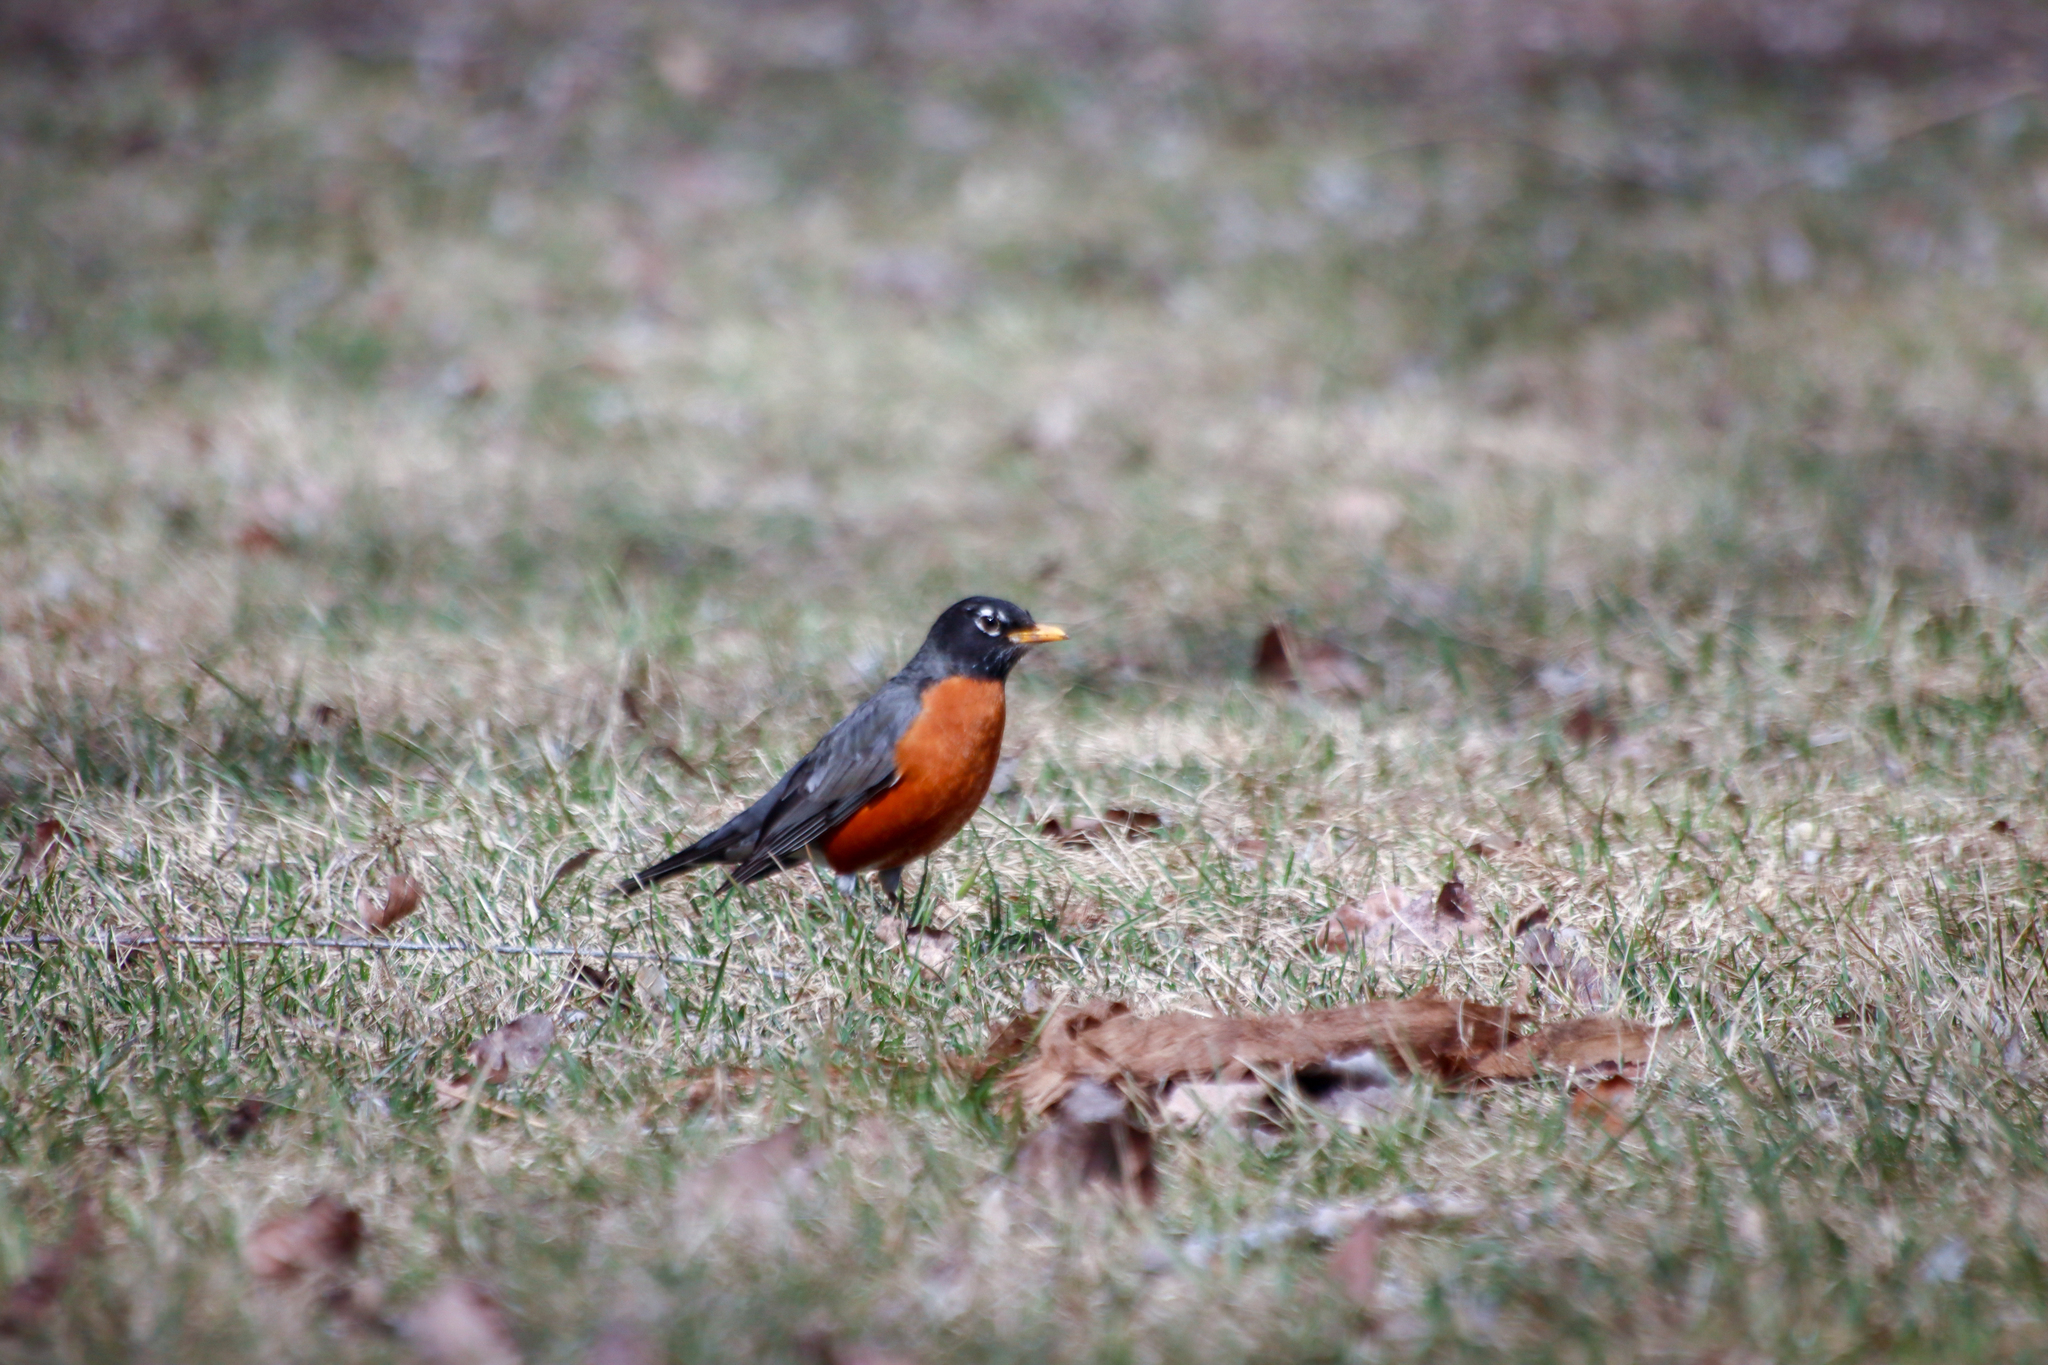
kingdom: Animalia
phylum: Chordata
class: Aves
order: Passeriformes
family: Turdidae
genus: Turdus
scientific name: Turdus migratorius
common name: American robin
